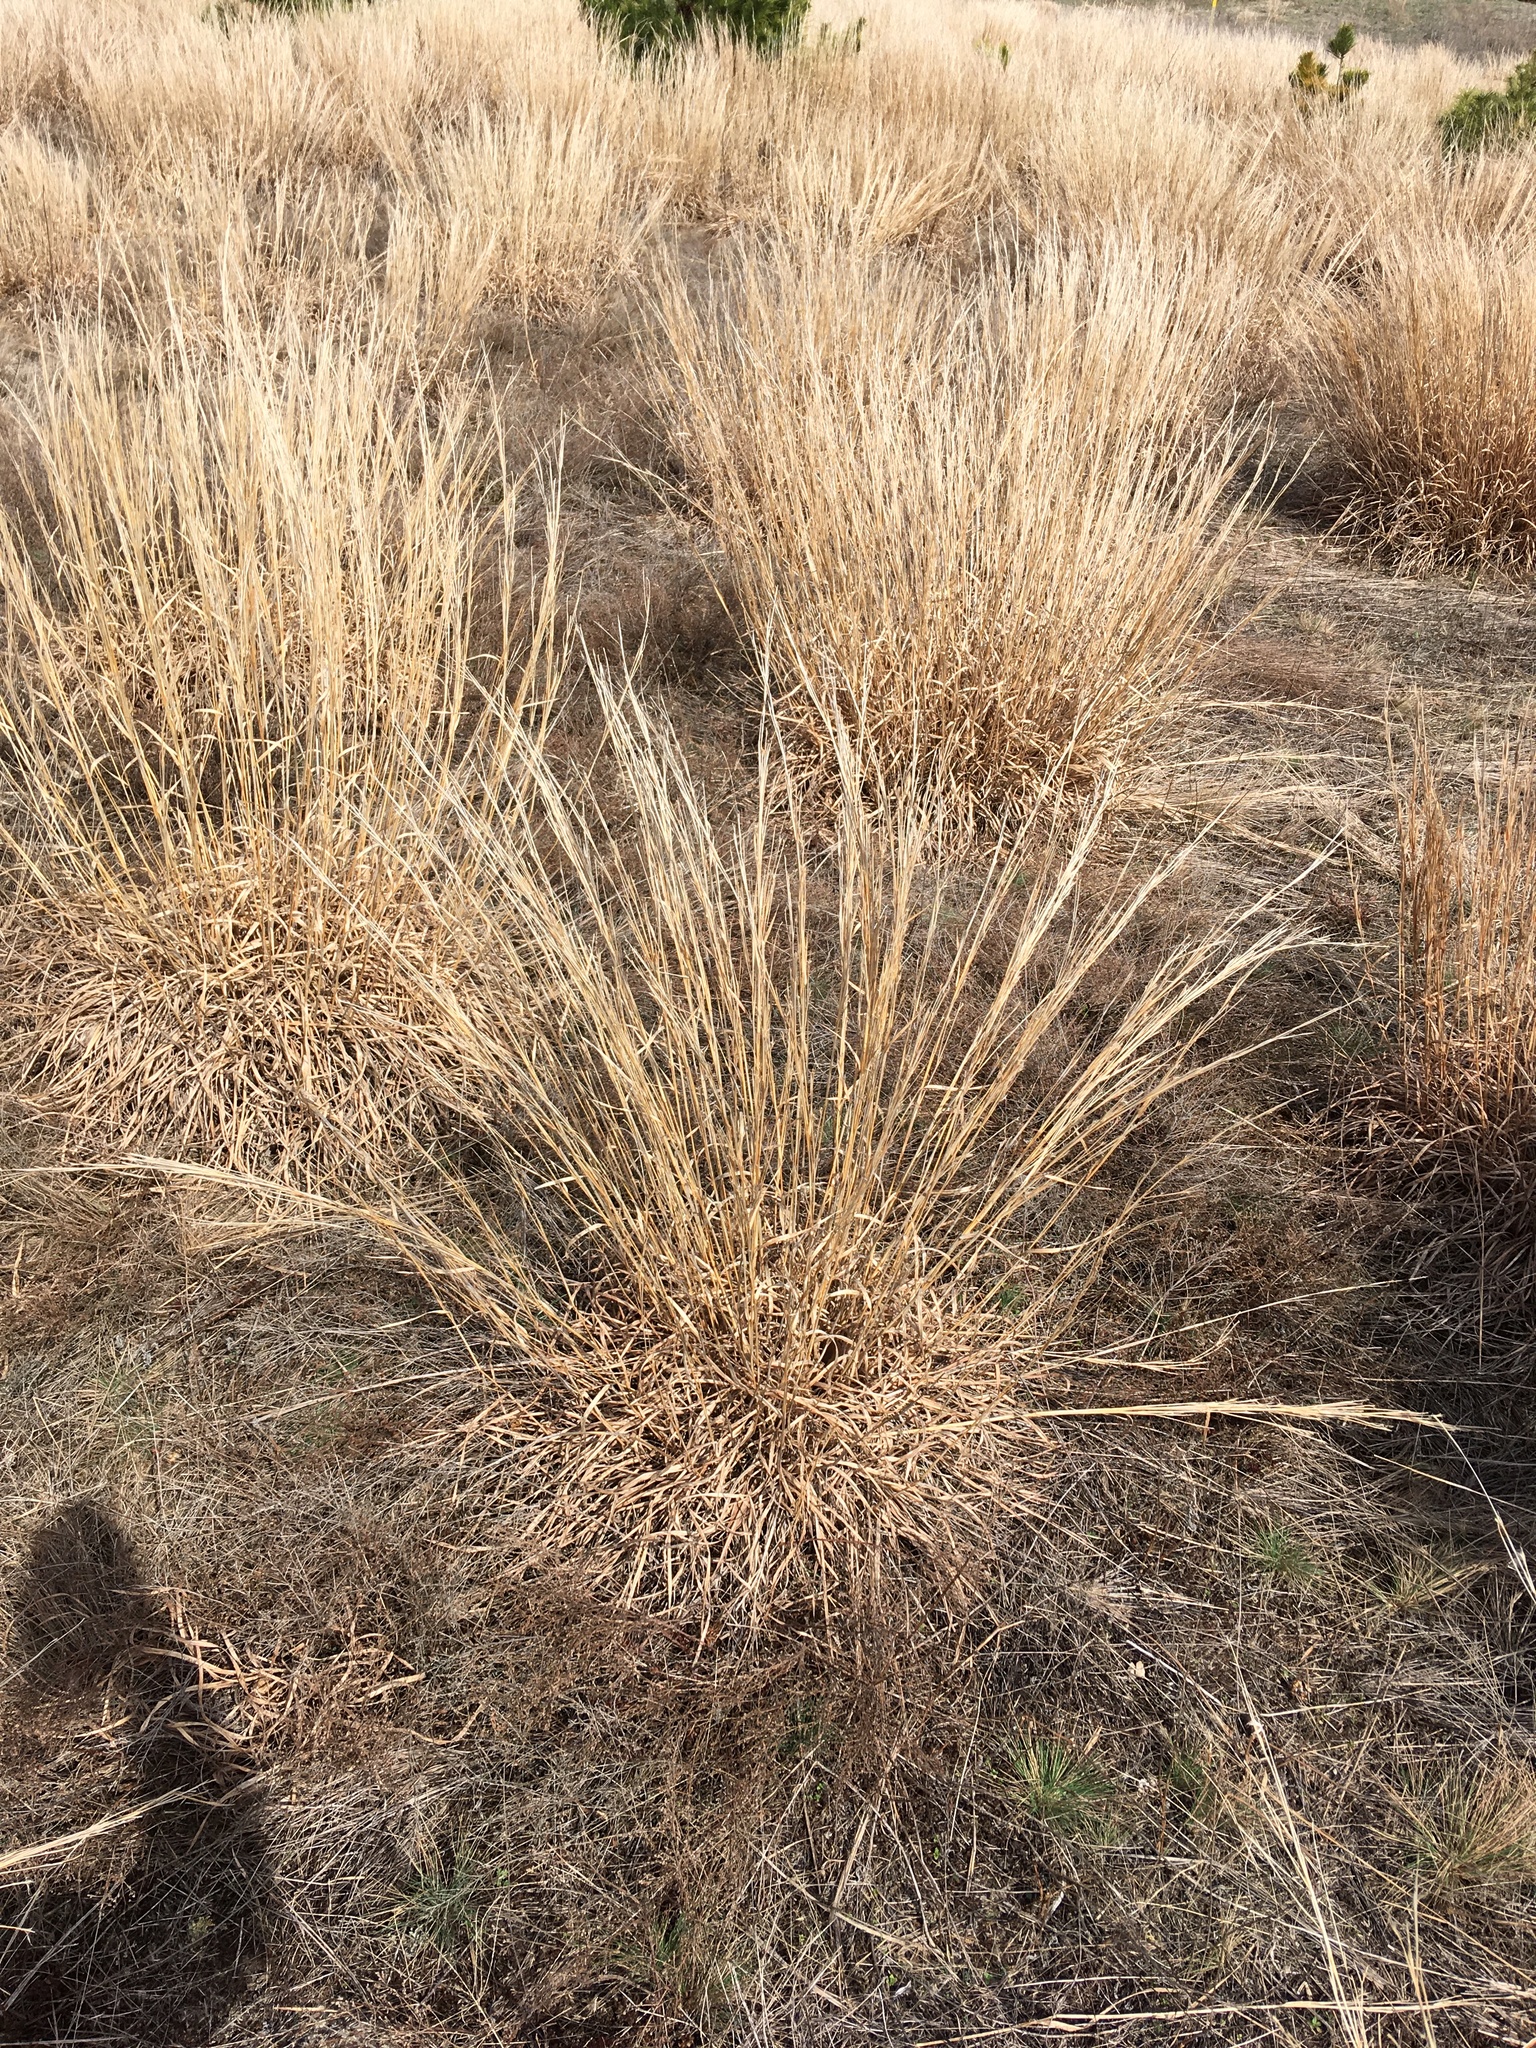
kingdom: Plantae
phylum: Tracheophyta
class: Liliopsida
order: Poales
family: Poaceae
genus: Schizachyrium
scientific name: Schizachyrium scoparium
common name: Little bluestem
